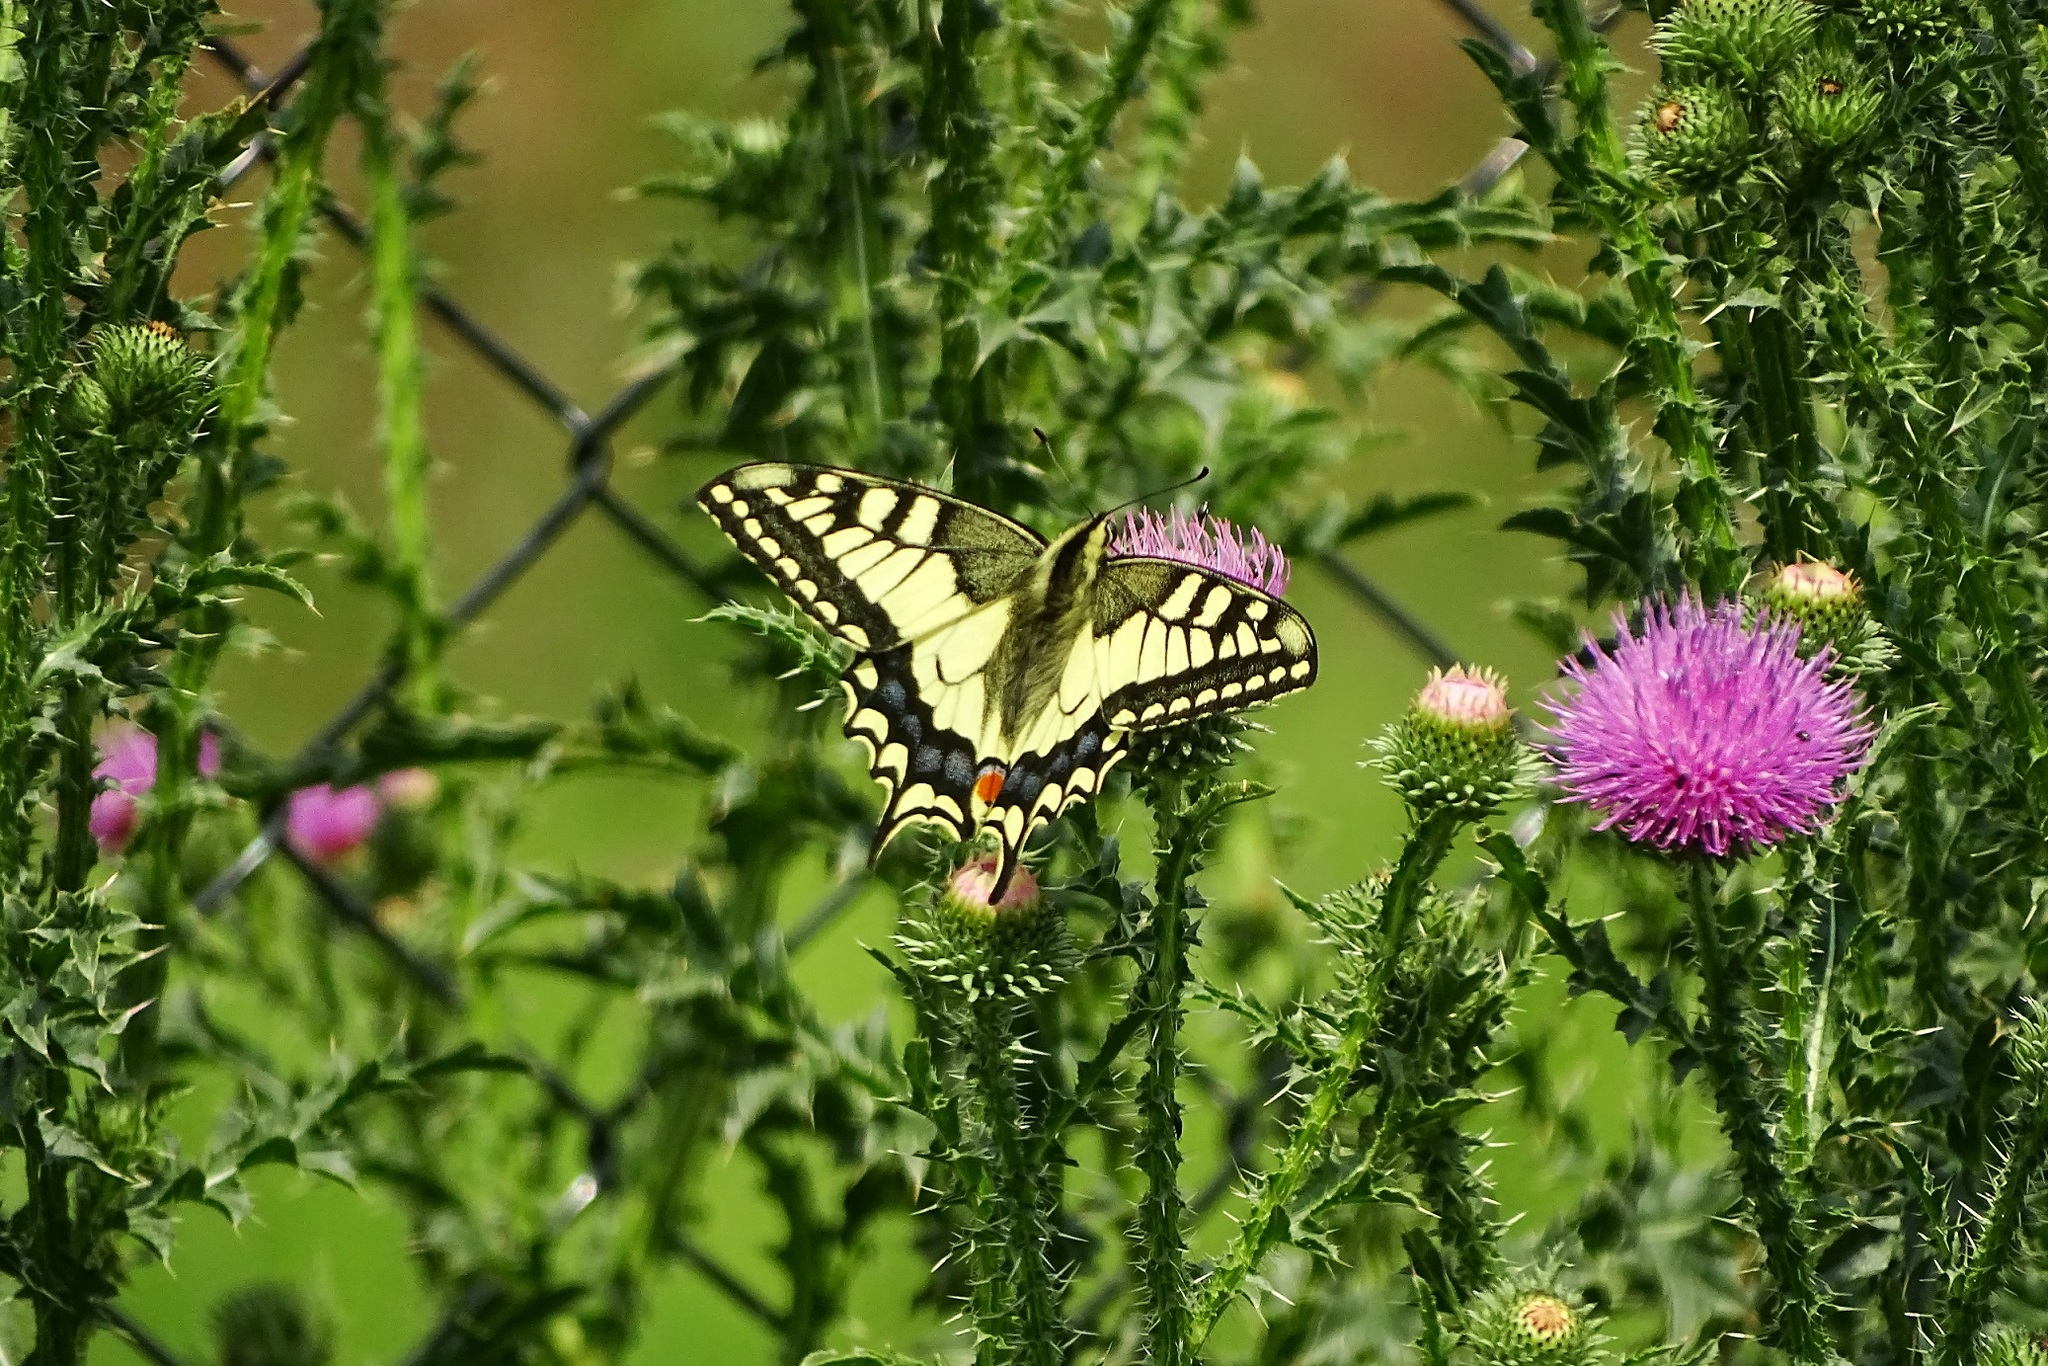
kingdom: Animalia
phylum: Arthropoda
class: Insecta
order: Lepidoptera
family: Papilionidae
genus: Papilio
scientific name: Papilio machaon
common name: Swallowtail
